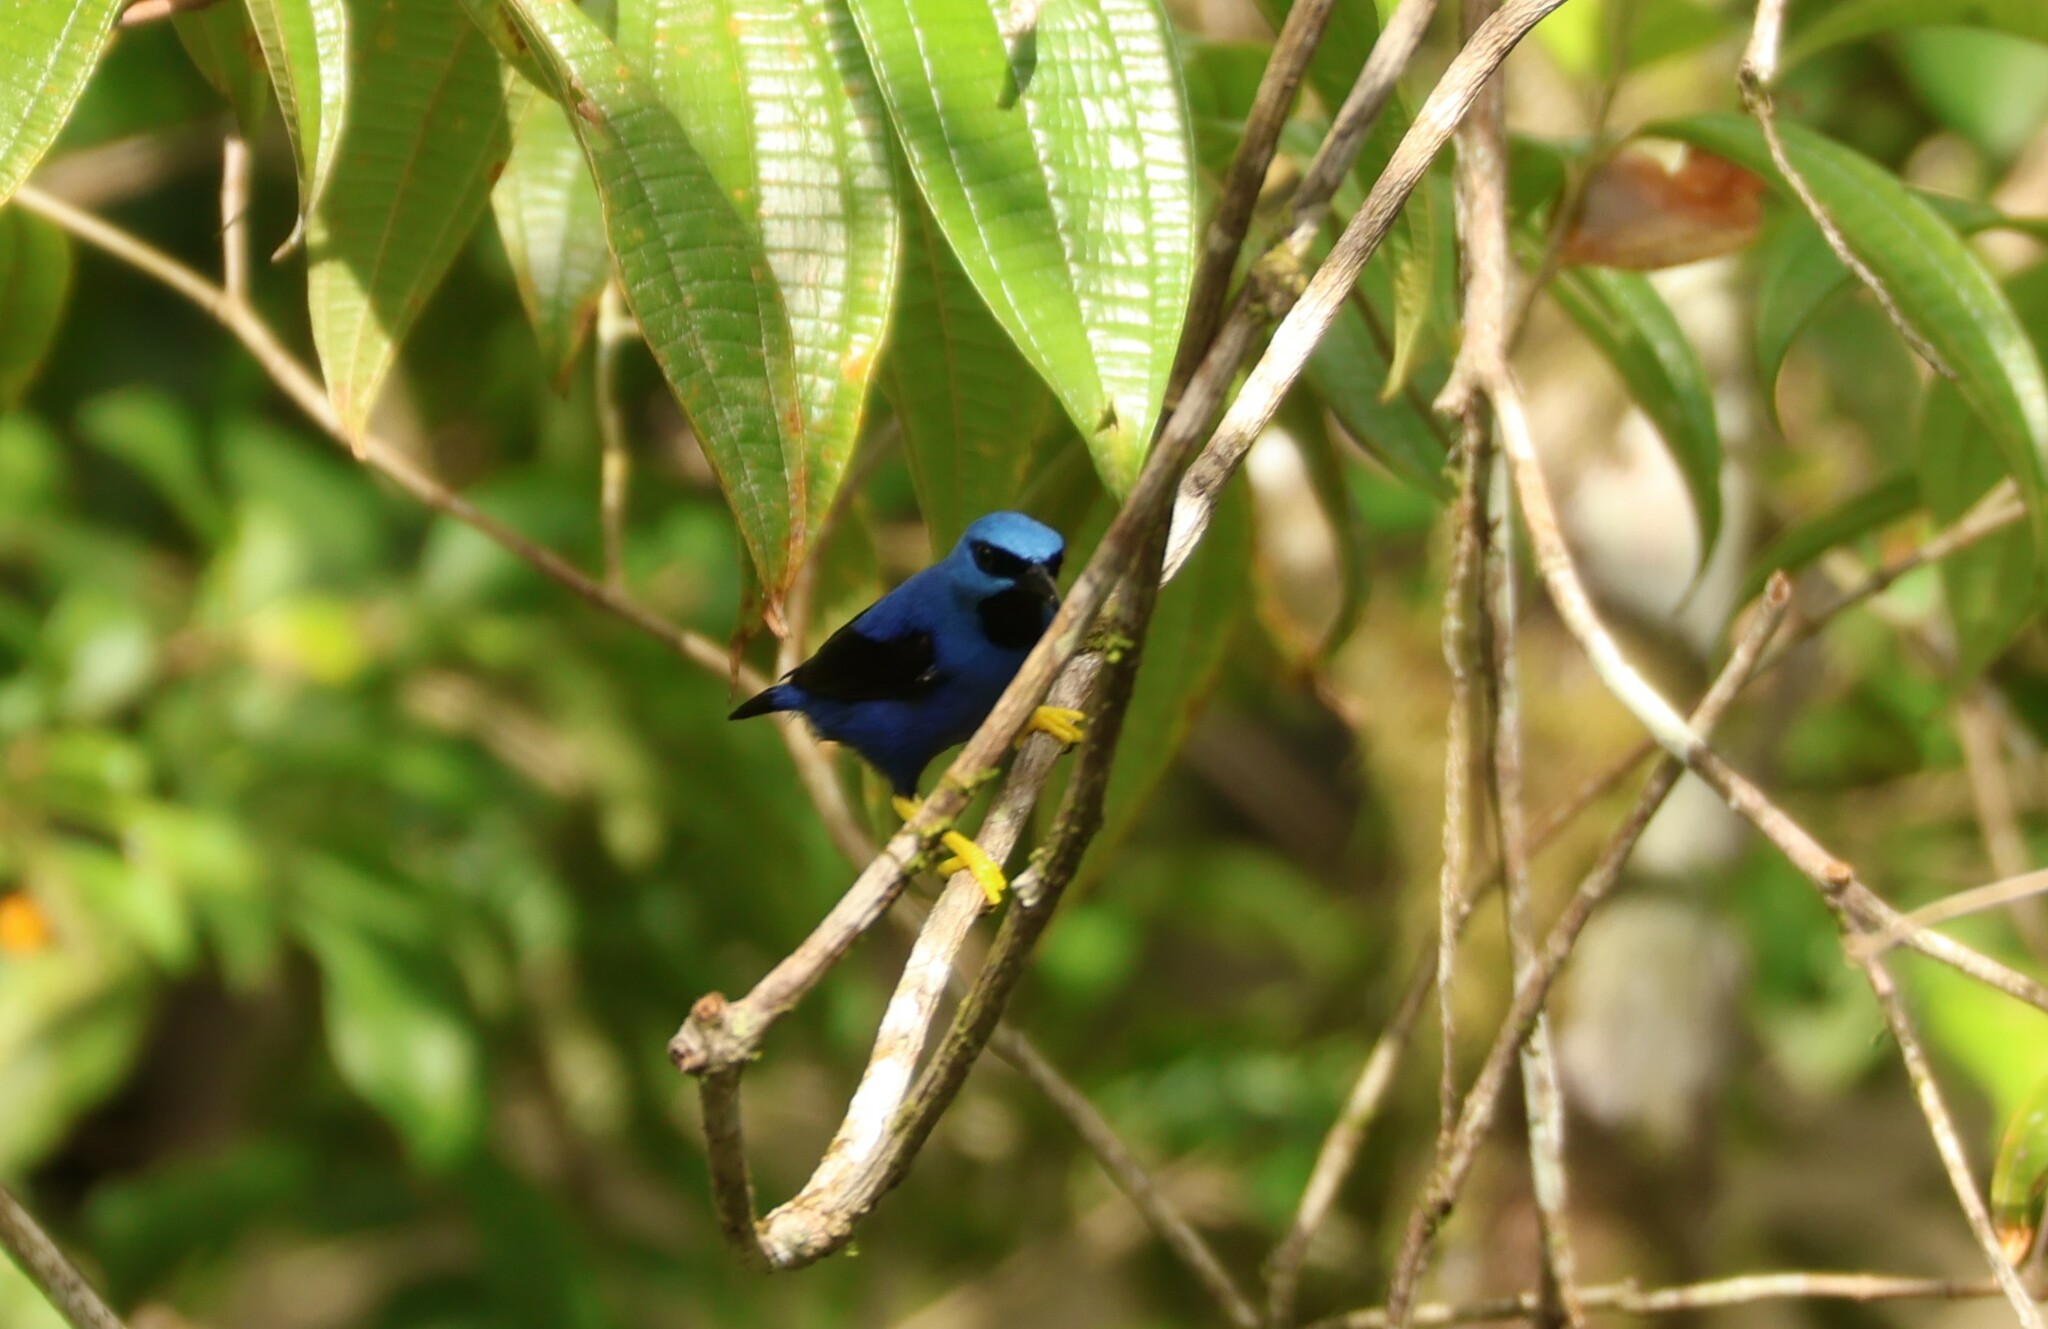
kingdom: Animalia
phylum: Chordata
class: Aves
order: Passeriformes
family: Thraupidae
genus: Cyanerpes
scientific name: Cyanerpes lucidus
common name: Shining honeycreeper
